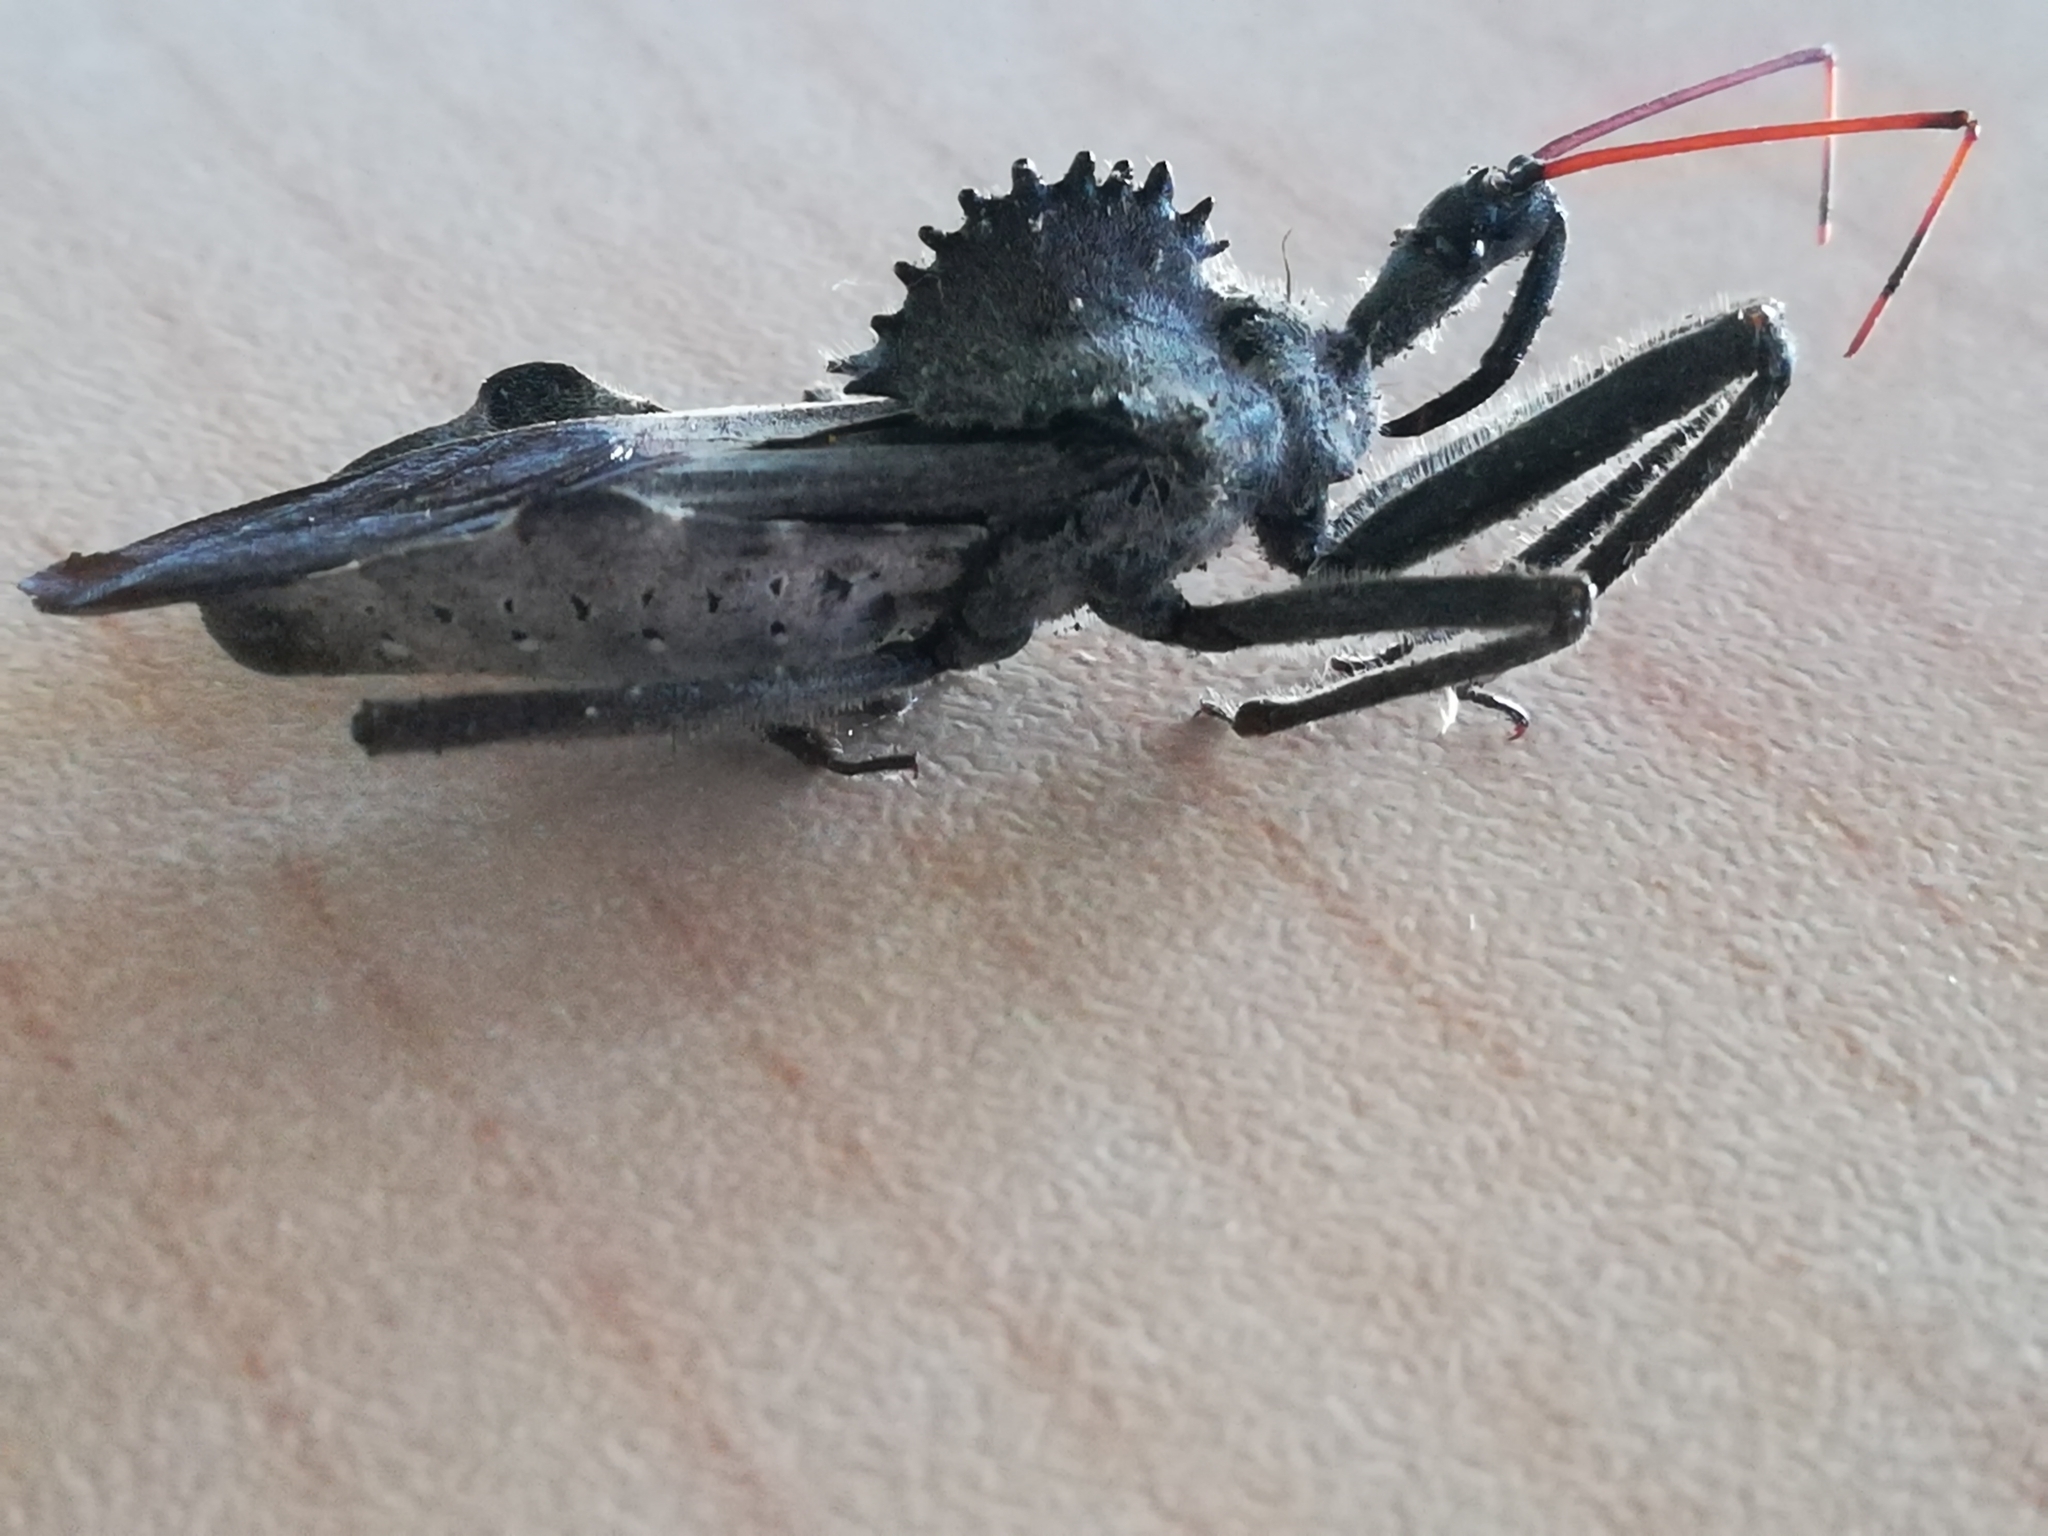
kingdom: Animalia
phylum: Arthropoda
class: Insecta
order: Hemiptera
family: Reduviidae
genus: Arilus
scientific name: Arilus cristatus
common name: North american wheel bug
